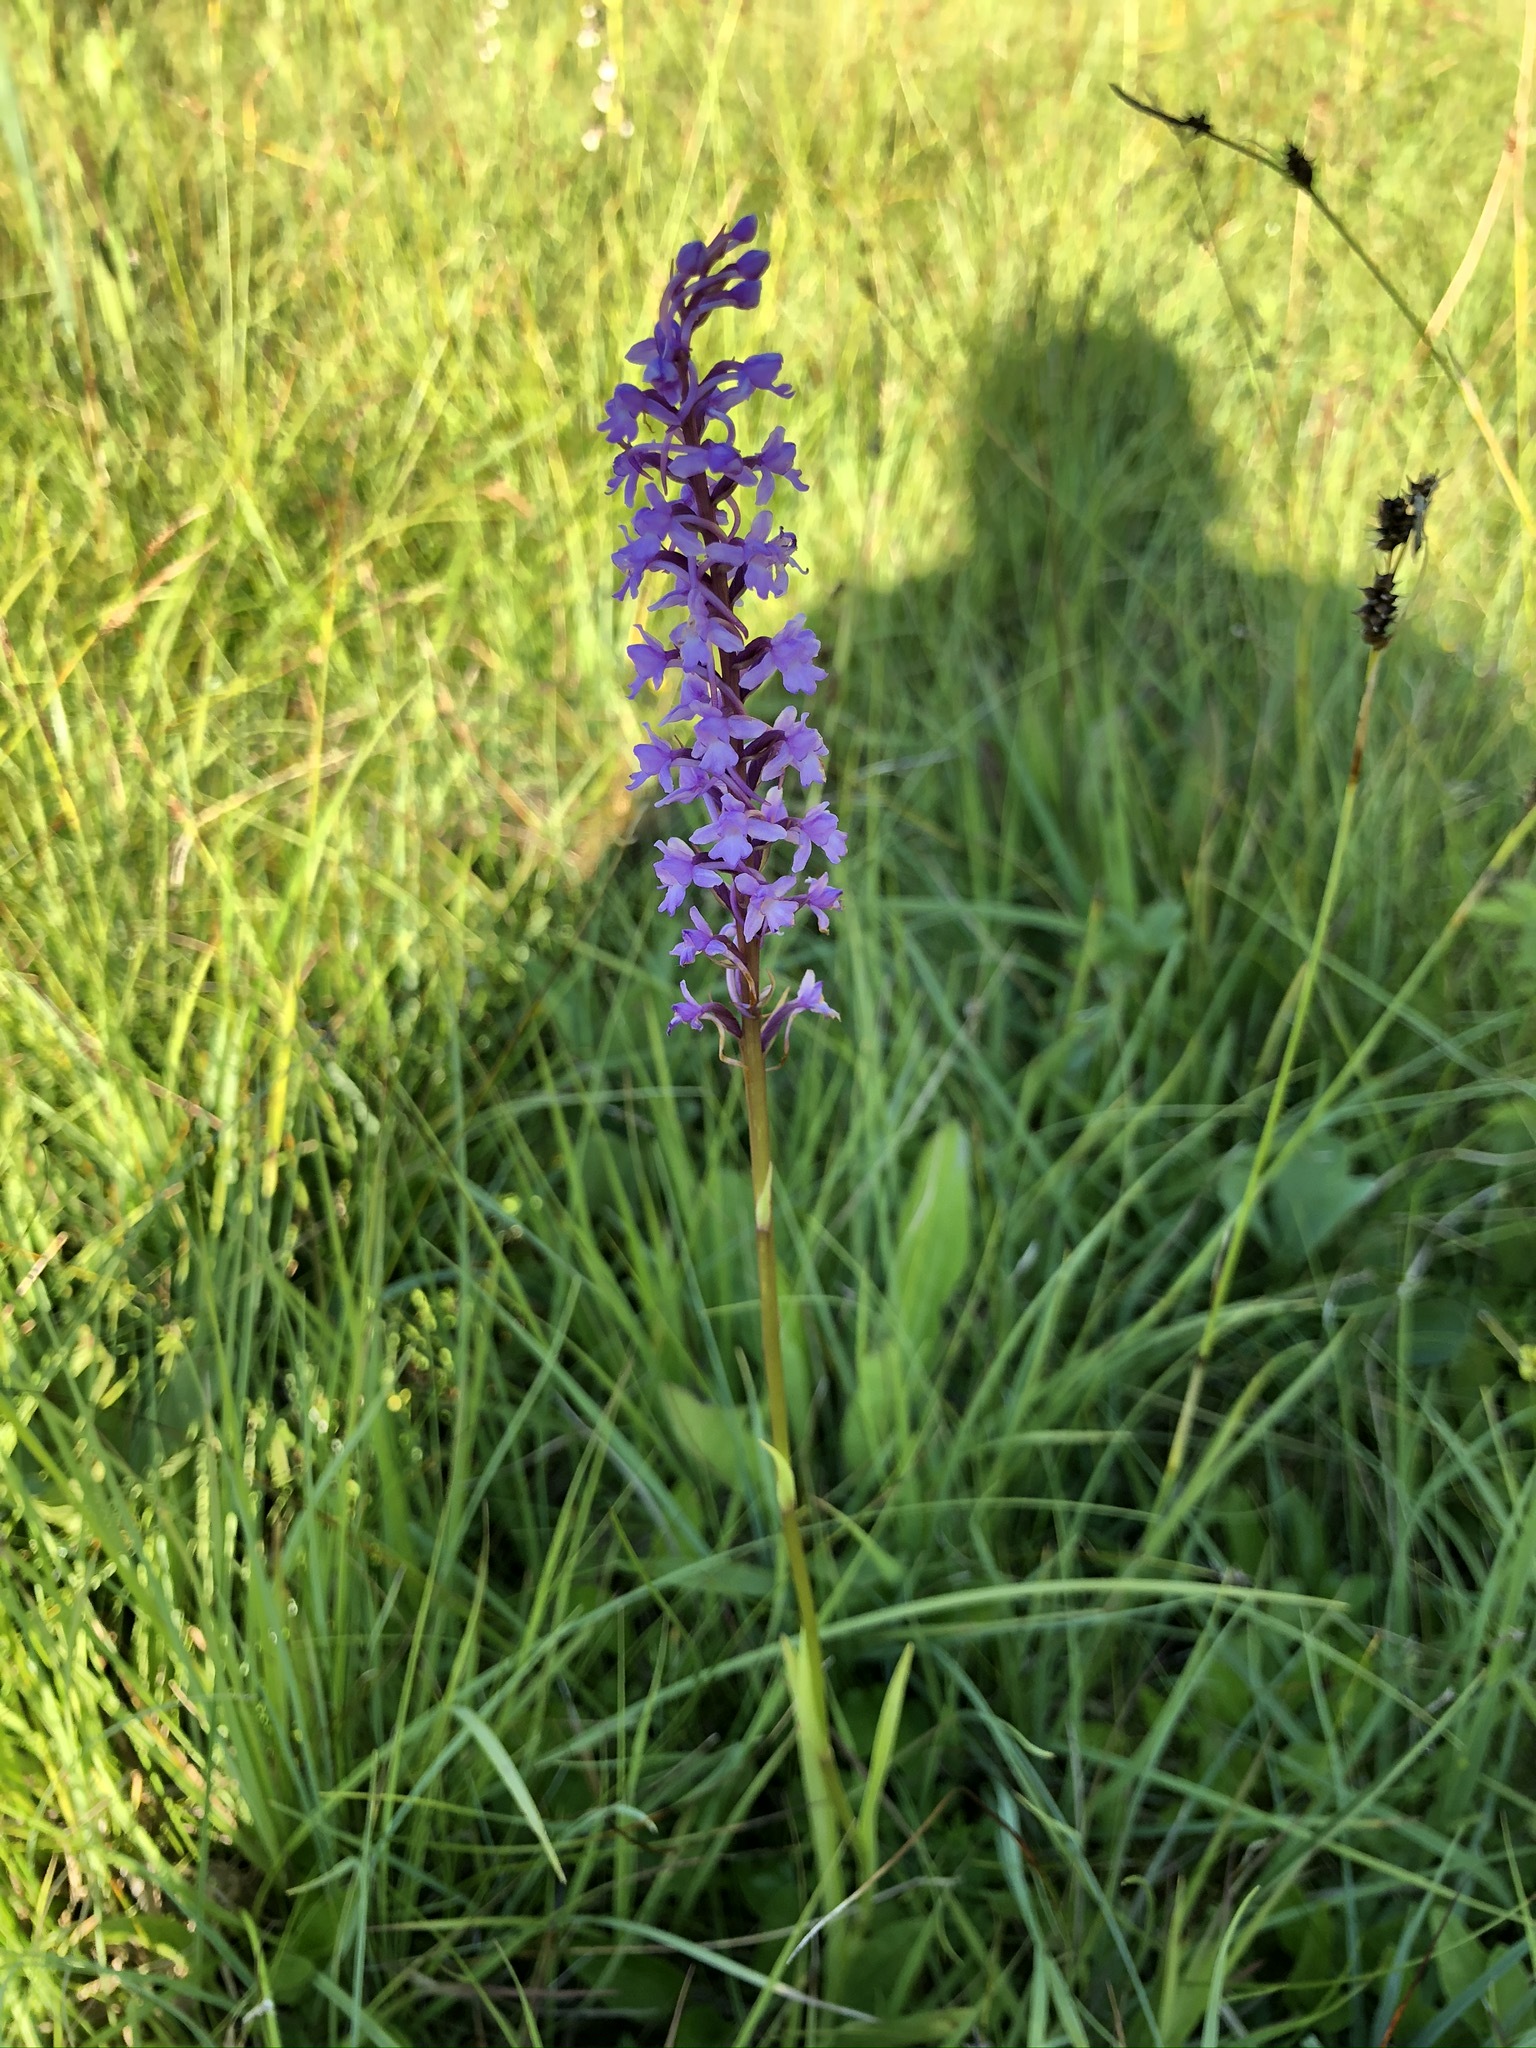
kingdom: Plantae
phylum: Tracheophyta
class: Liliopsida
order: Asparagales
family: Orchidaceae
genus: Gymnadenia
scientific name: Gymnadenia conopsea
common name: Fragrant orchid
